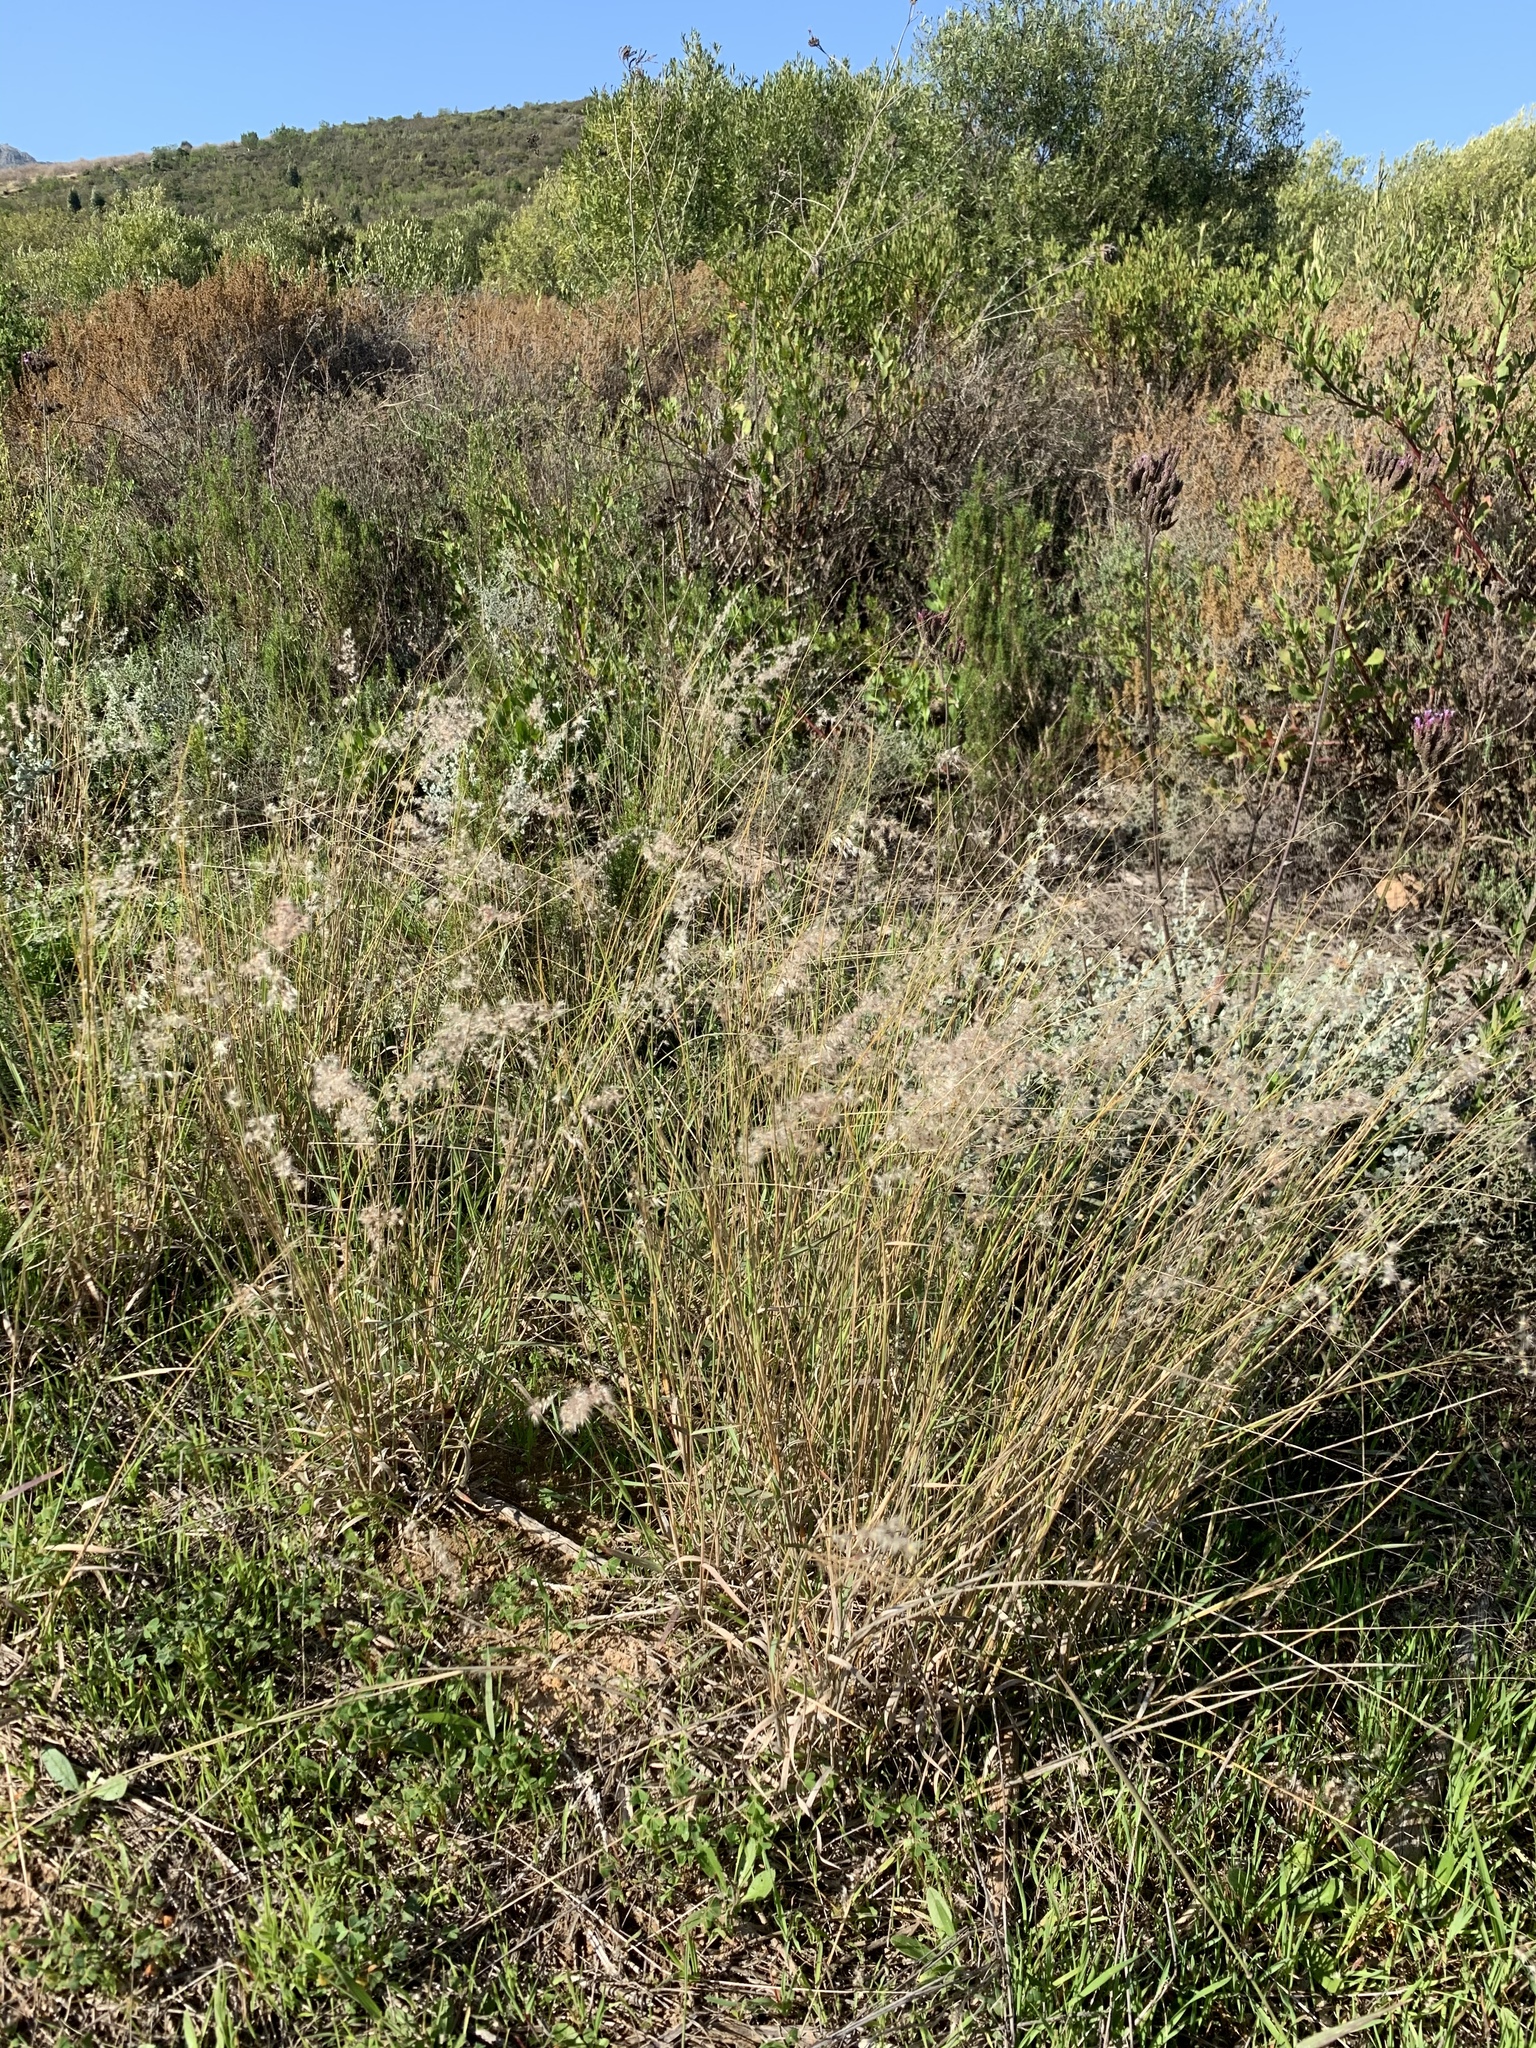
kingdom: Plantae
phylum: Tracheophyta
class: Liliopsida
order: Poales
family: Poaceae
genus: Melinis
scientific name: Melinis repens
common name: Rose natal grass
